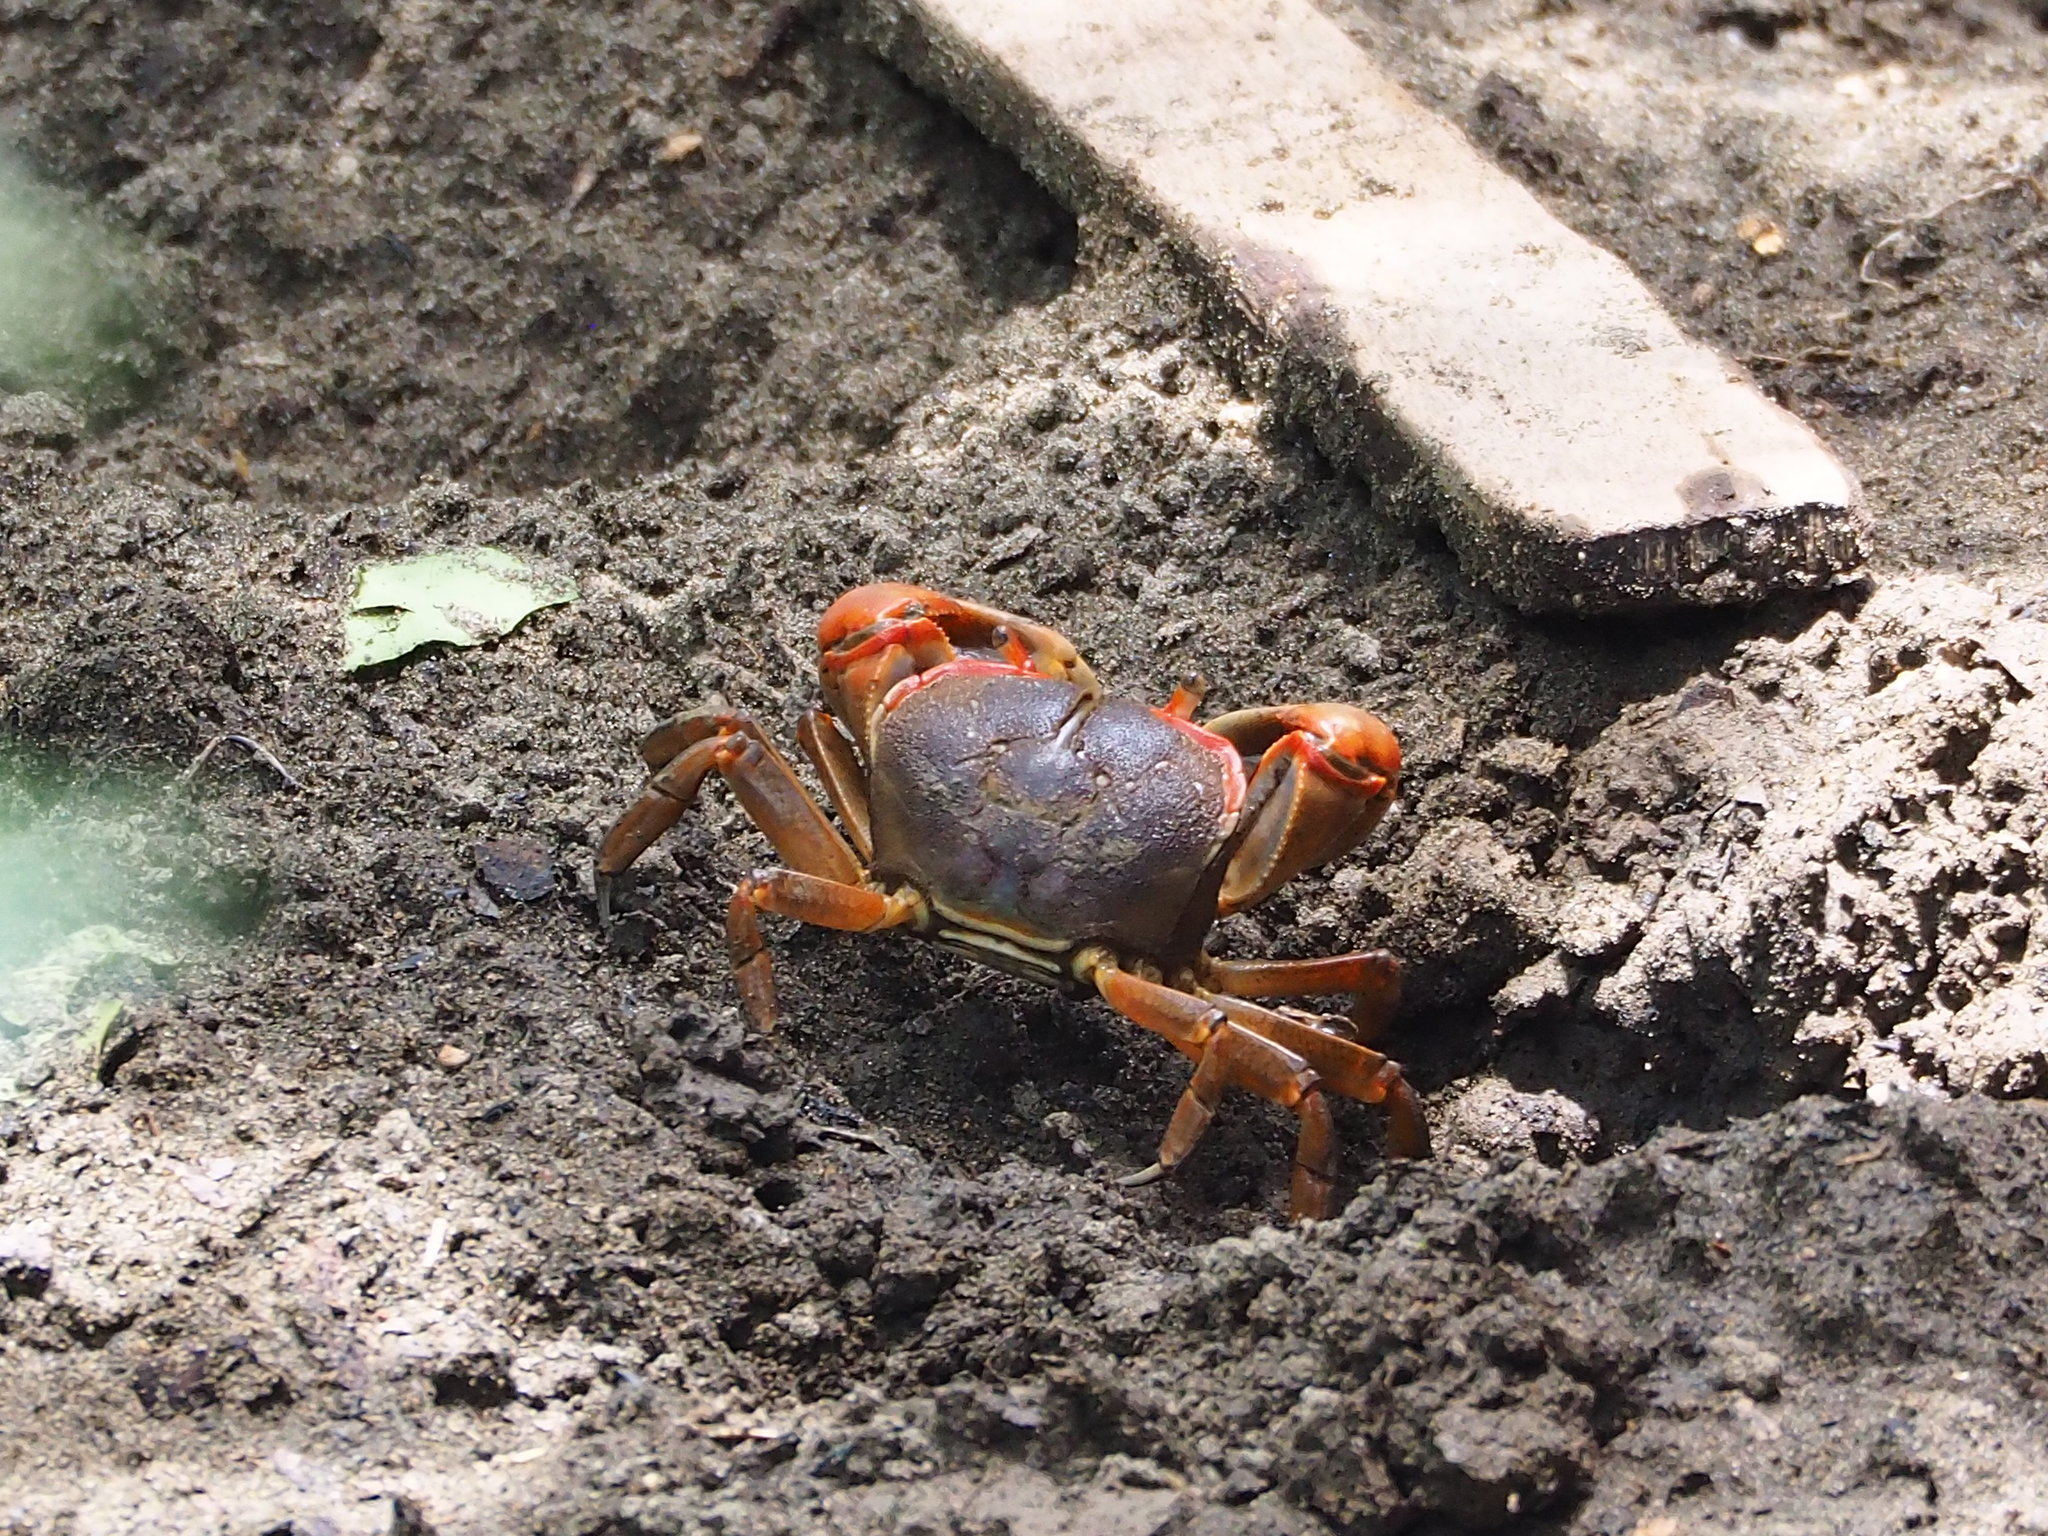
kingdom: Animalia
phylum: Arthropoda
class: Malacostraca
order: Decapoda
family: Varunidae
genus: Chasmagnathus
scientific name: Chasmagnathus convexus
